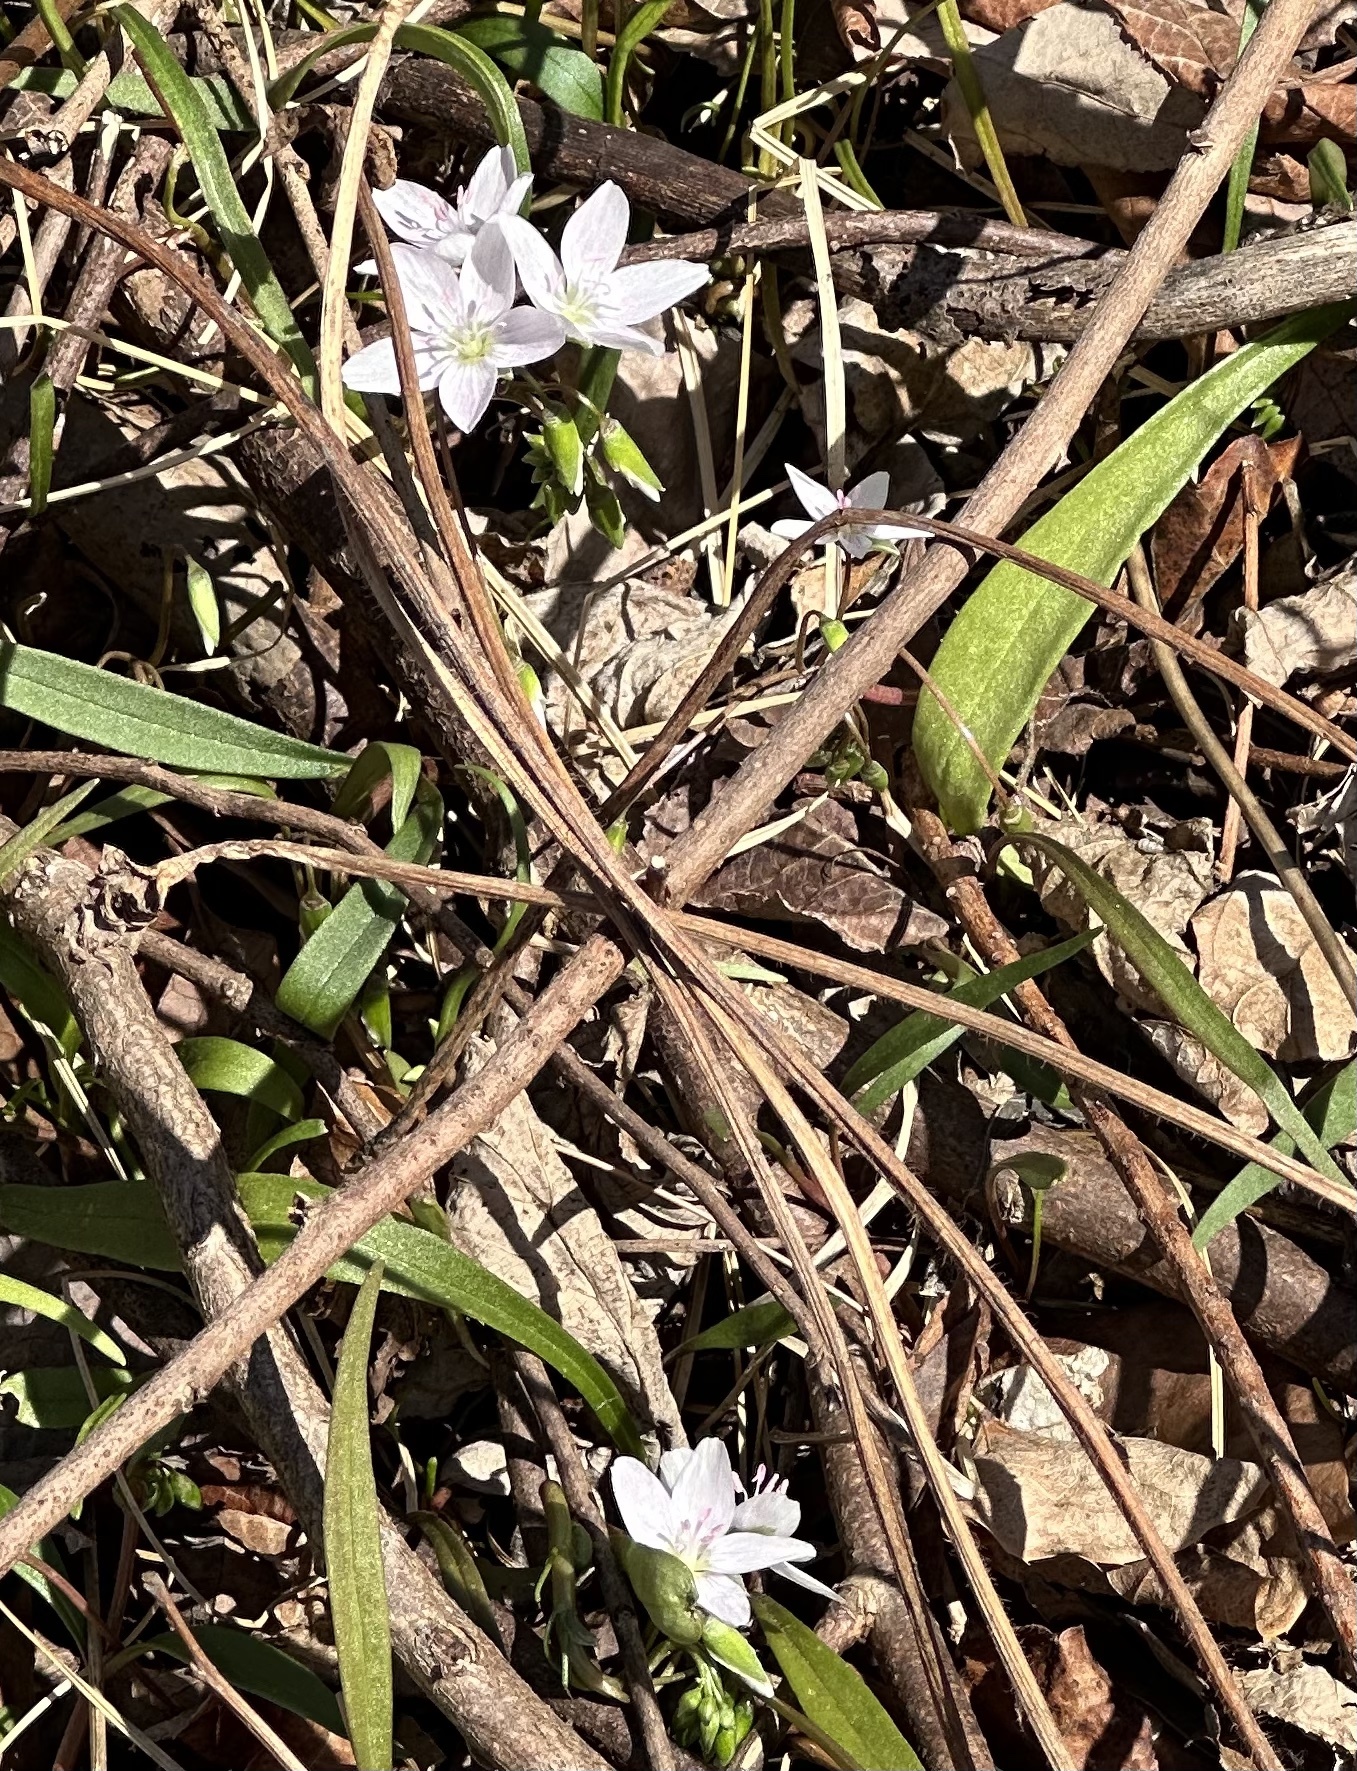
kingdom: Plantae
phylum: Tracheophyta
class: Magnoliopsida
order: Caryophyllales
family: Montiaceae
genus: Claytonia
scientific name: Claytonia virginica
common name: Virginia springbeauty
